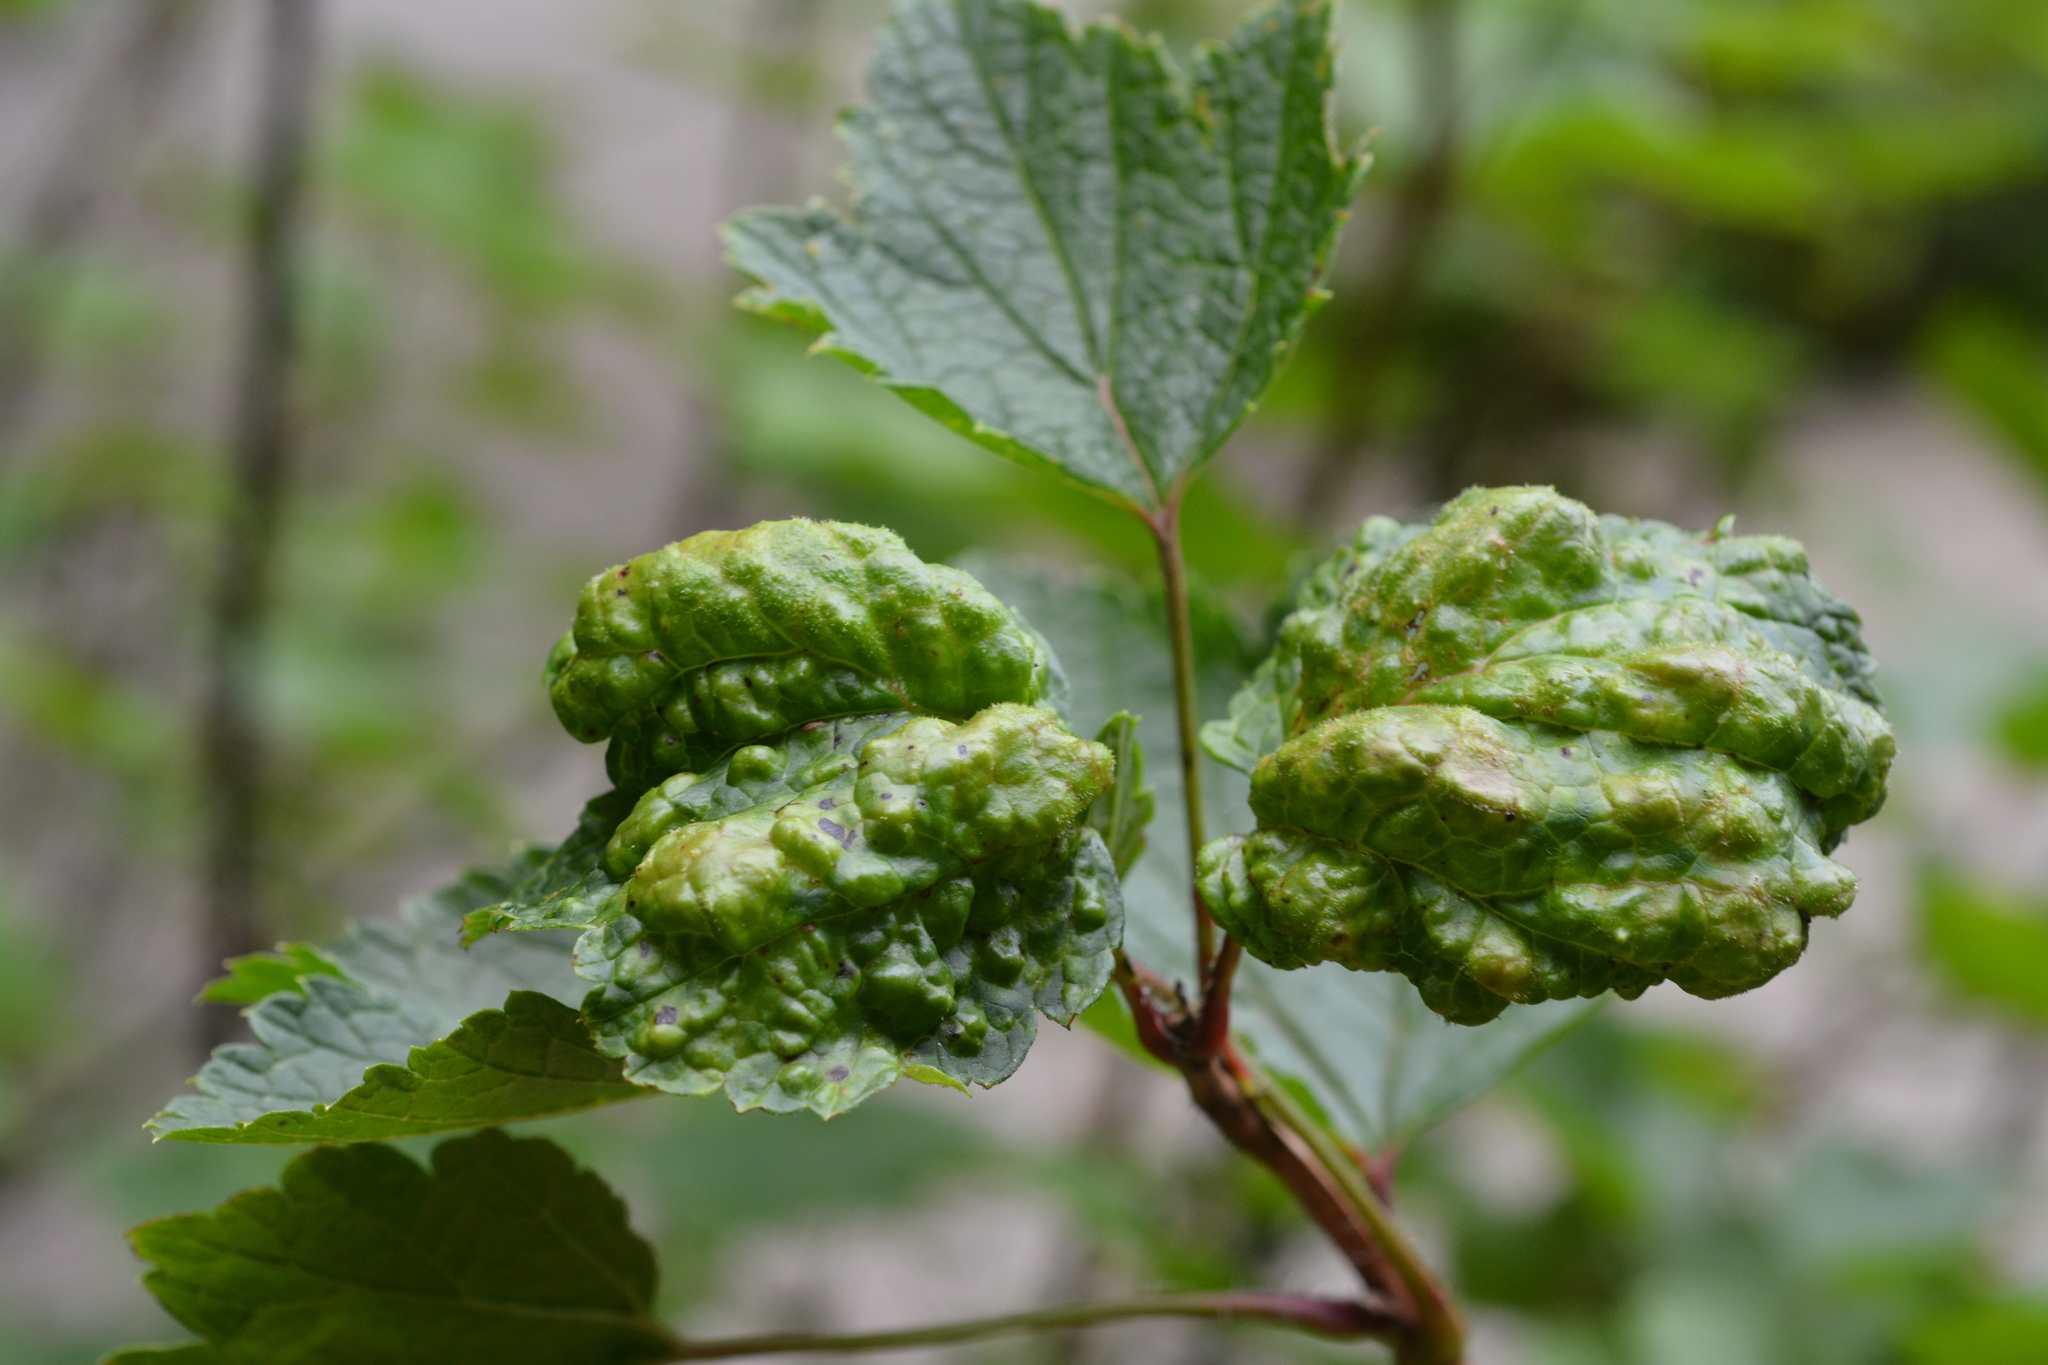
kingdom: Animalia
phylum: Arthropoda
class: Insecta
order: Hemiptera
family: Aphididae
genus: Cryptomyzus
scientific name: Cryptomyzus ribis
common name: Currant aphid
